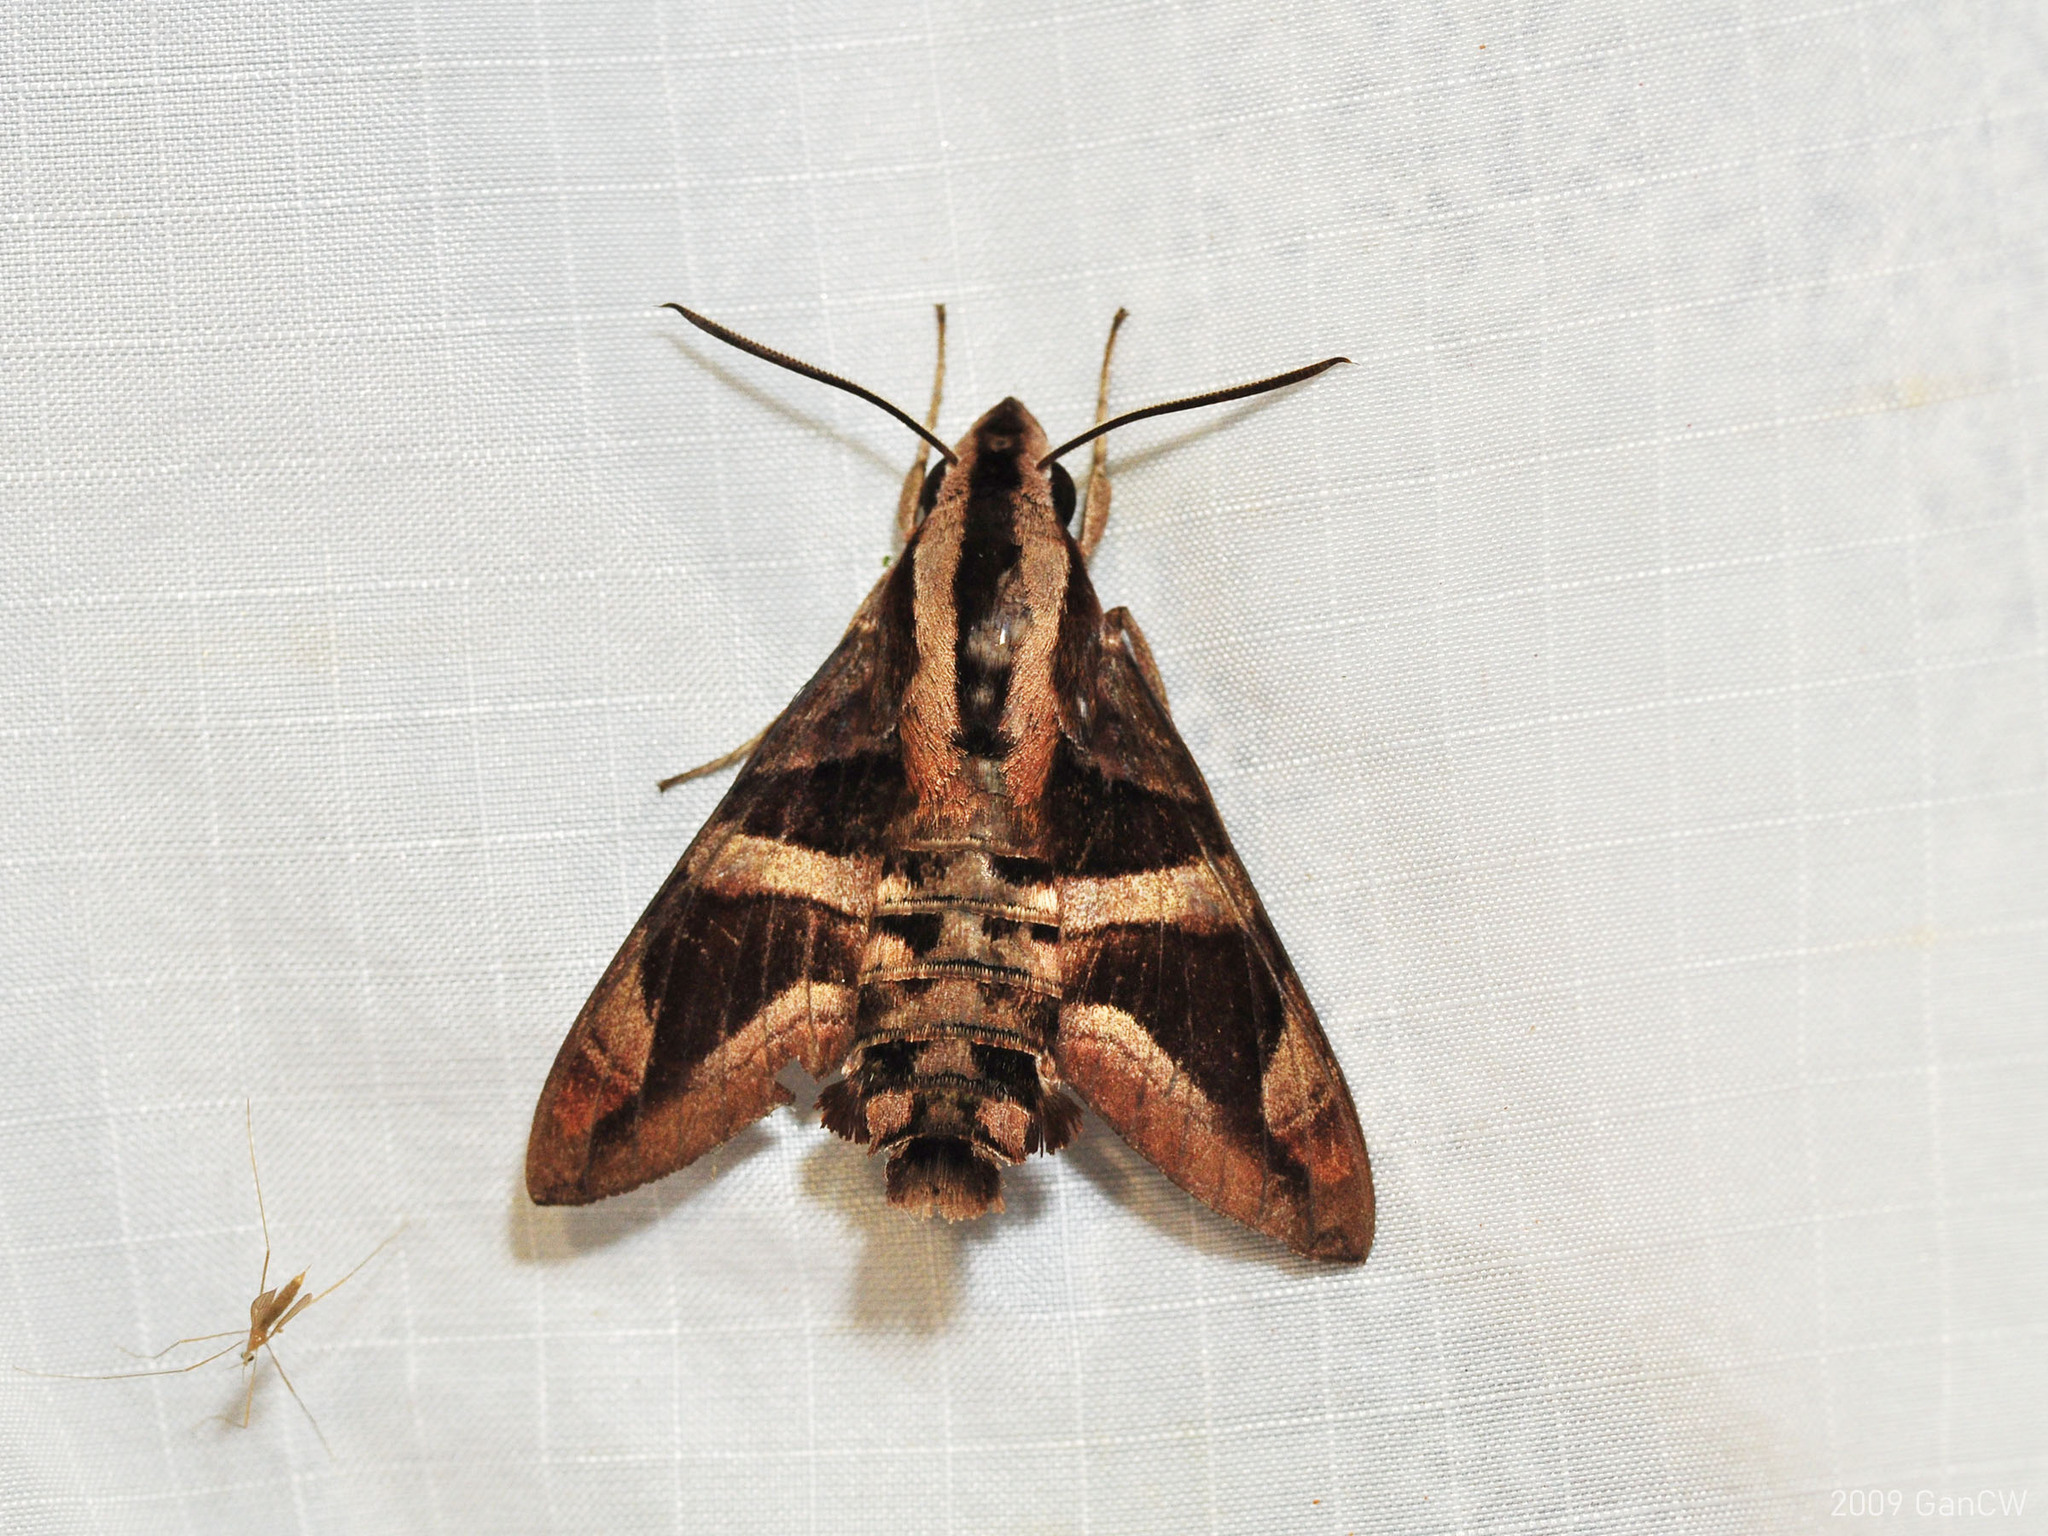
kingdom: Animalia
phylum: Arthropoda
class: Insecta
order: Lepidoptera
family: Sphingidae
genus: Macroglossum
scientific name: Macroglossum mitchellii
